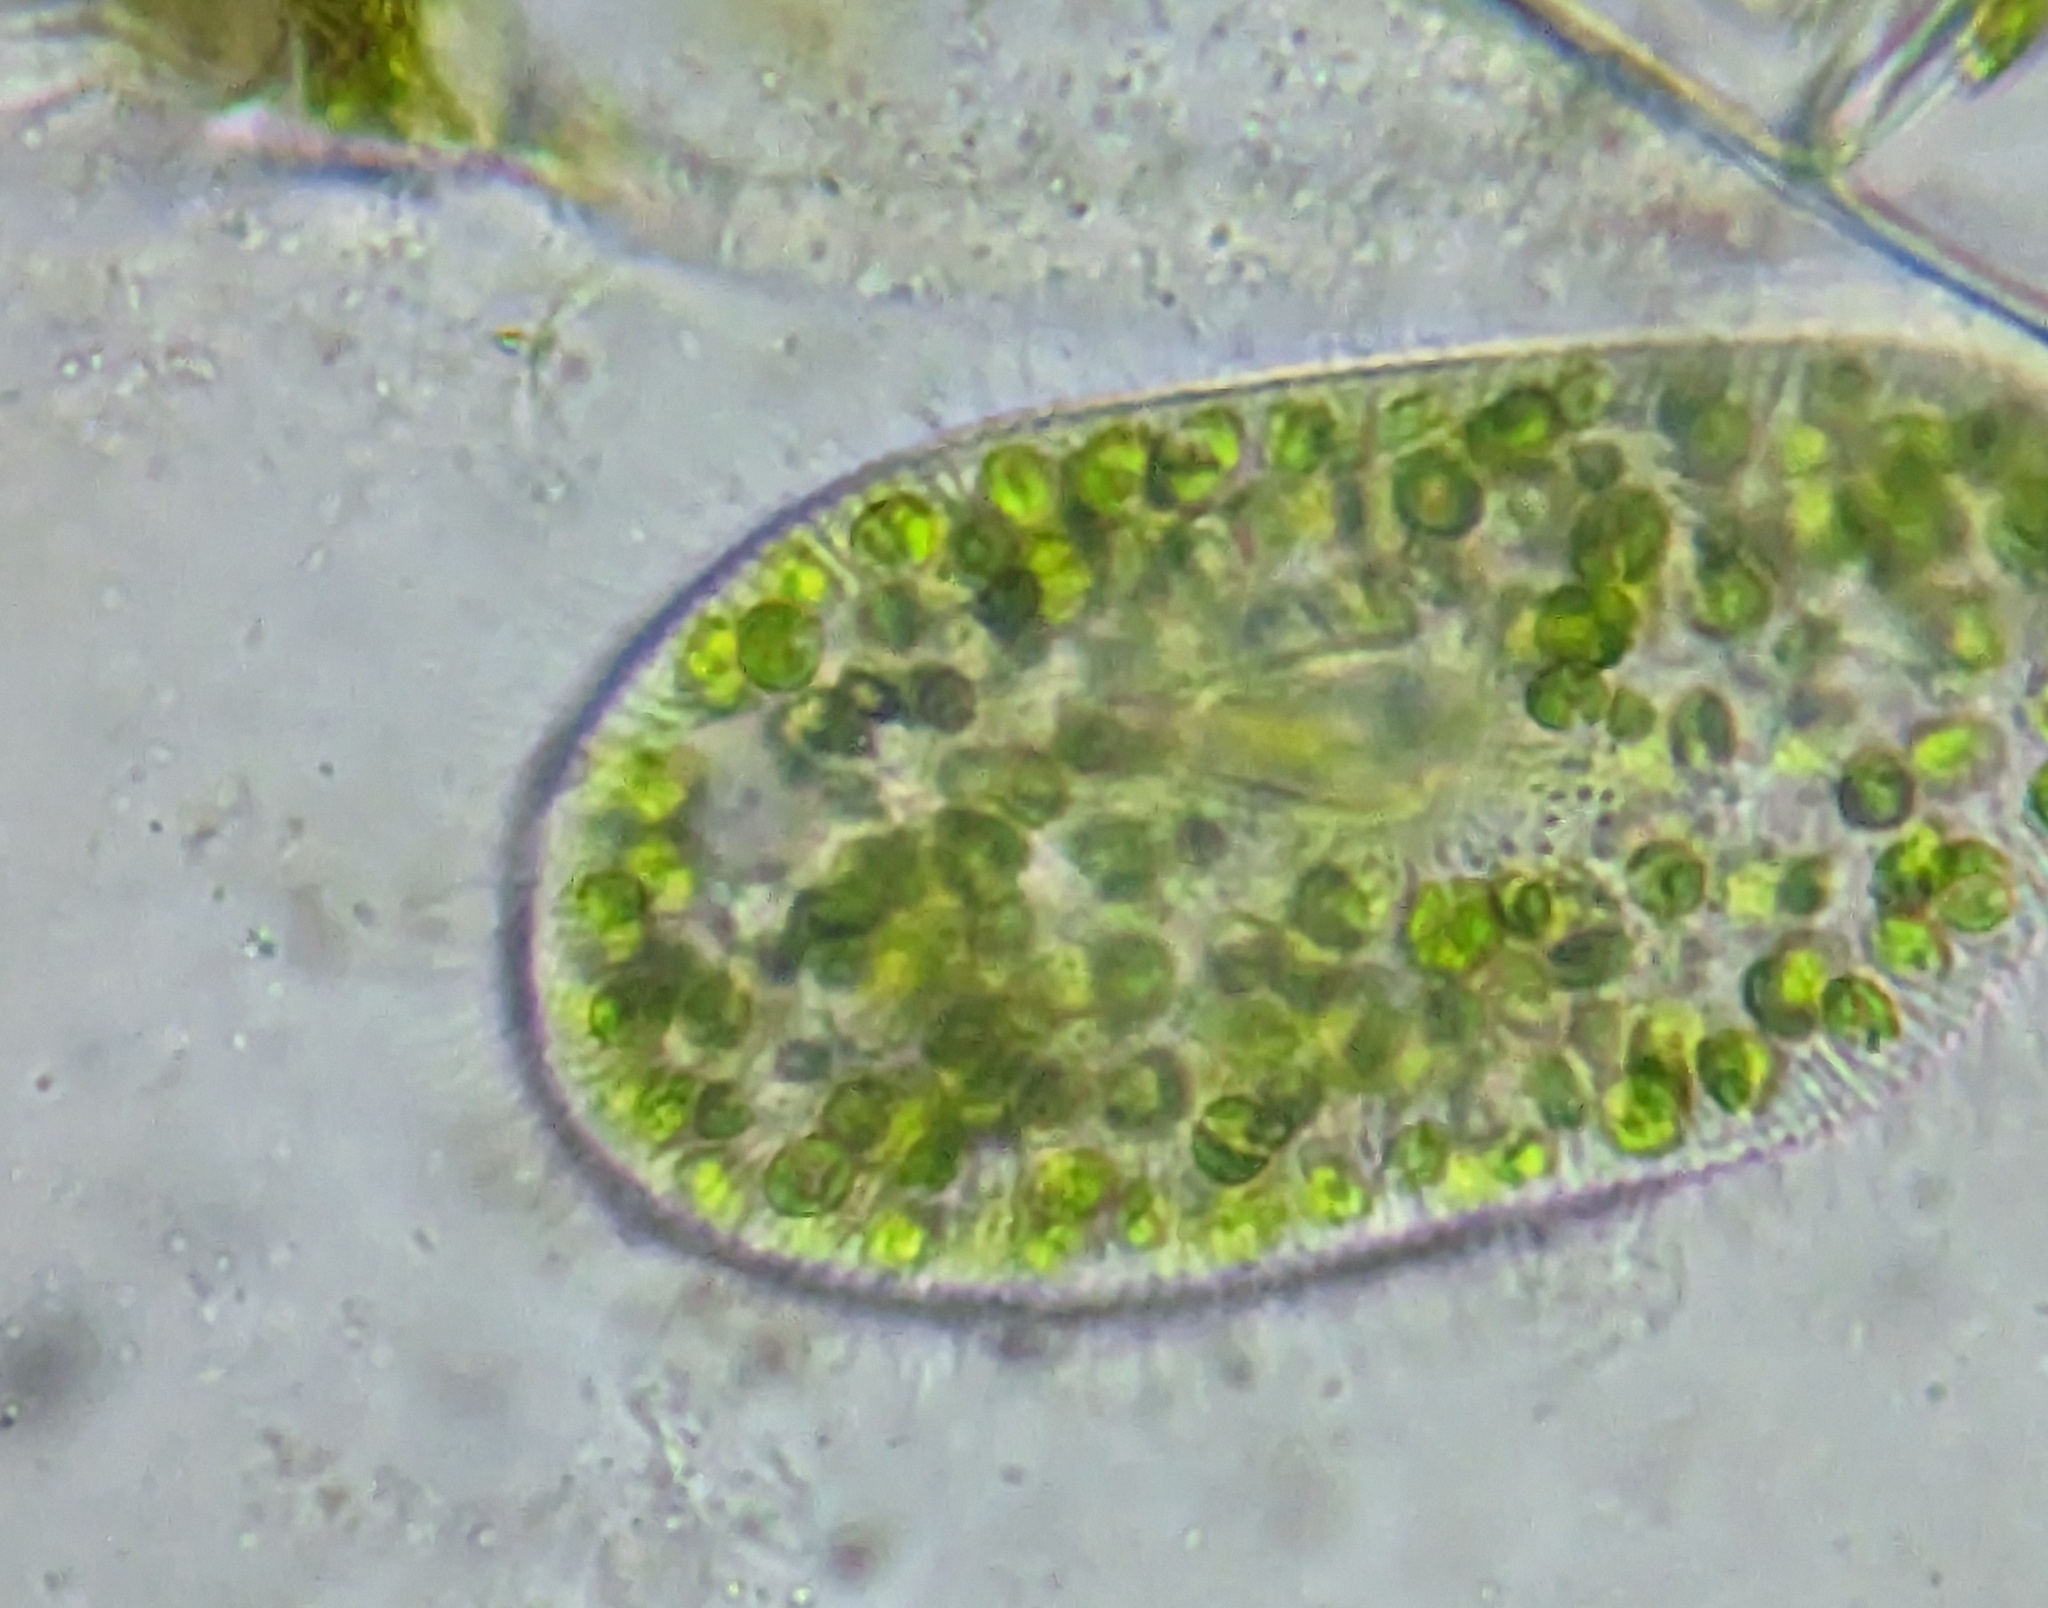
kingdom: Chromista
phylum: Ciliophora
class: Oligohymenophorea
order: Peniculida
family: Parameciidae
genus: Paramecium
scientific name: Paramecium
